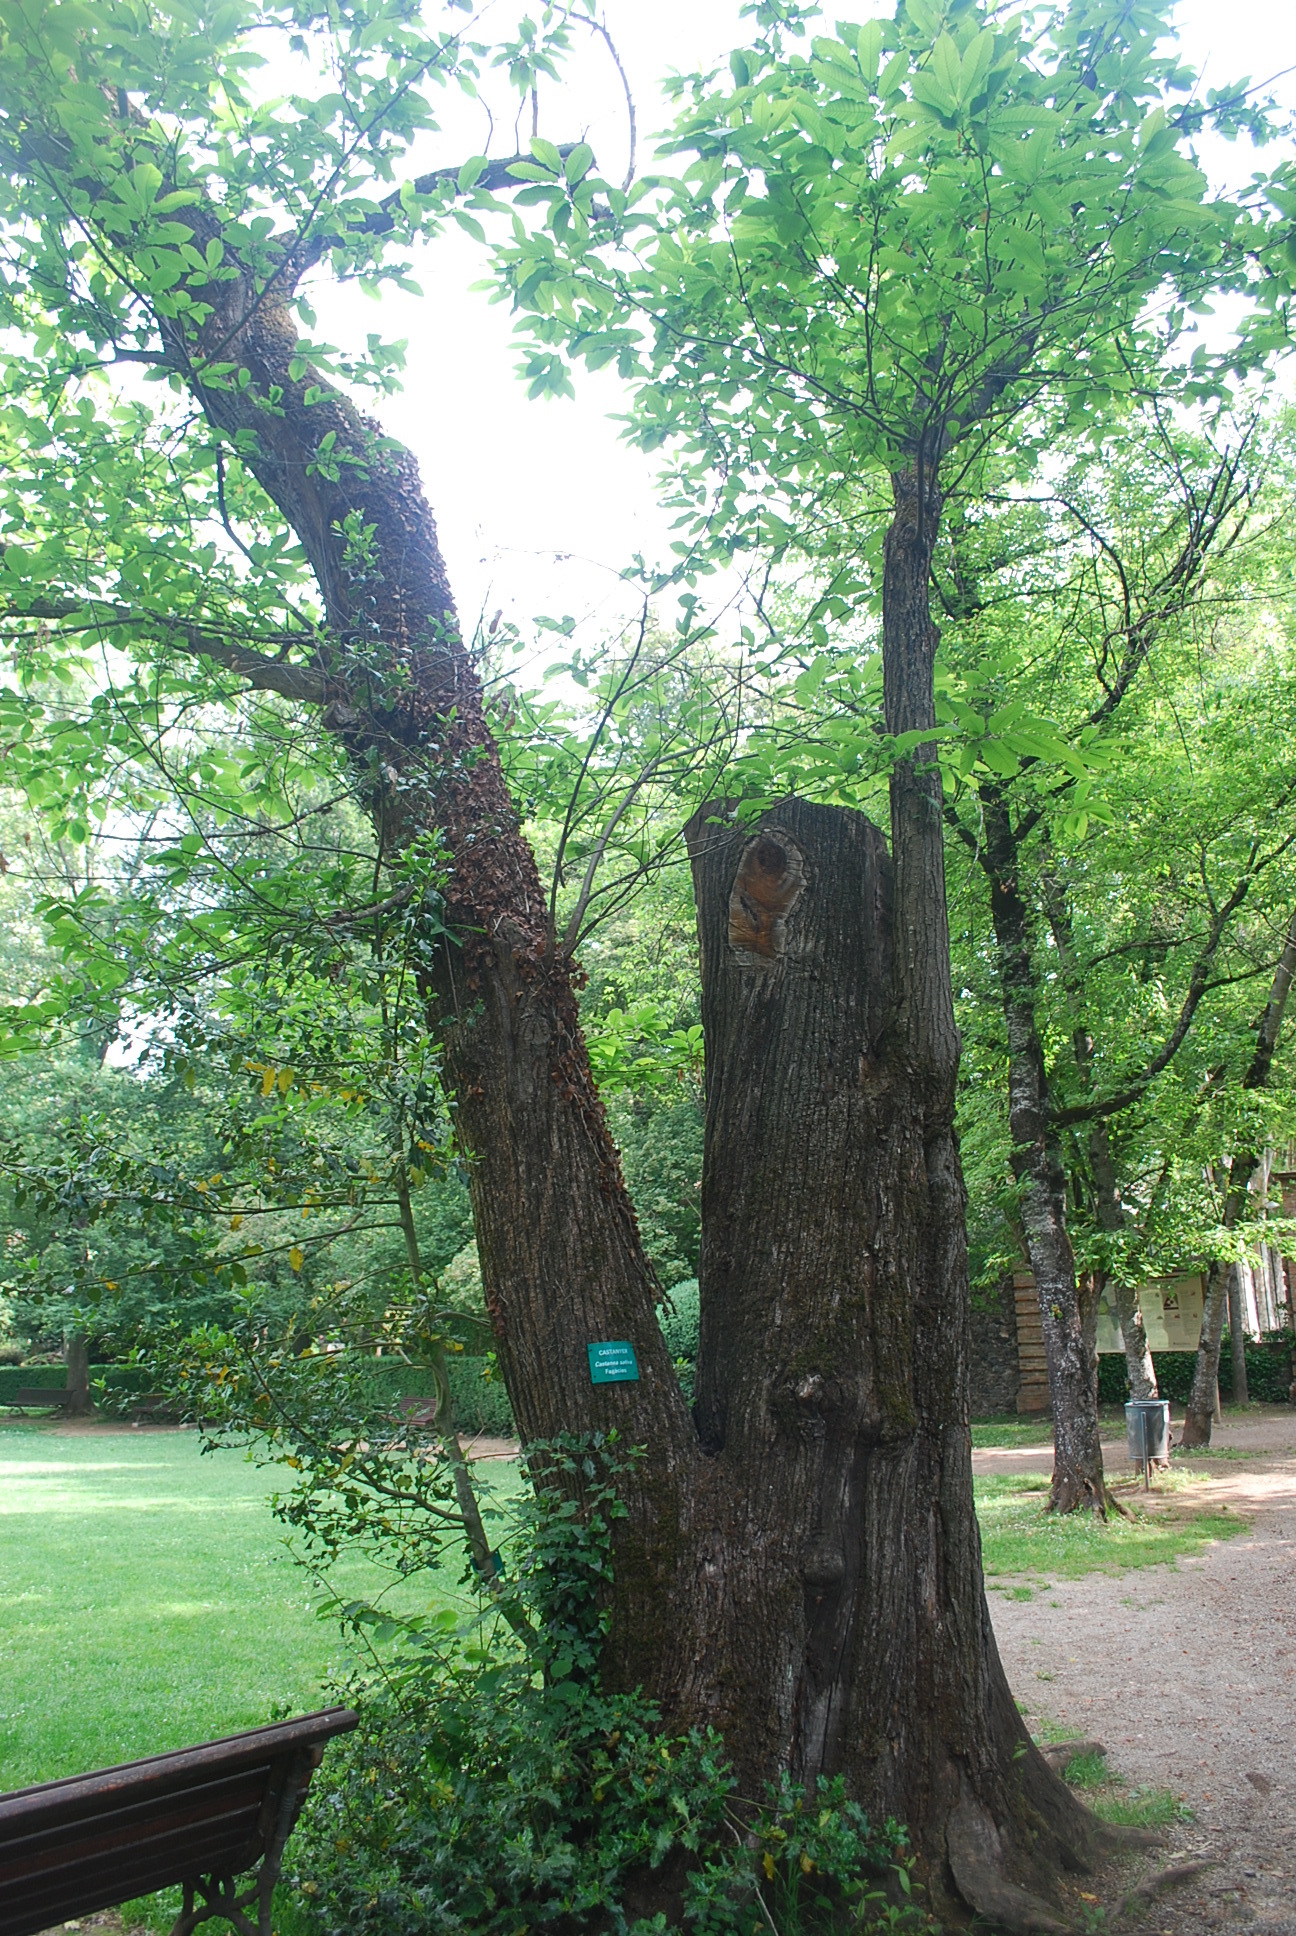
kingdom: Plantae
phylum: Tracheophyta
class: Magnoliopsida
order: Fagales
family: Fagaceae
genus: Castanea
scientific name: Castanea sativa
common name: Sweet chestnut
